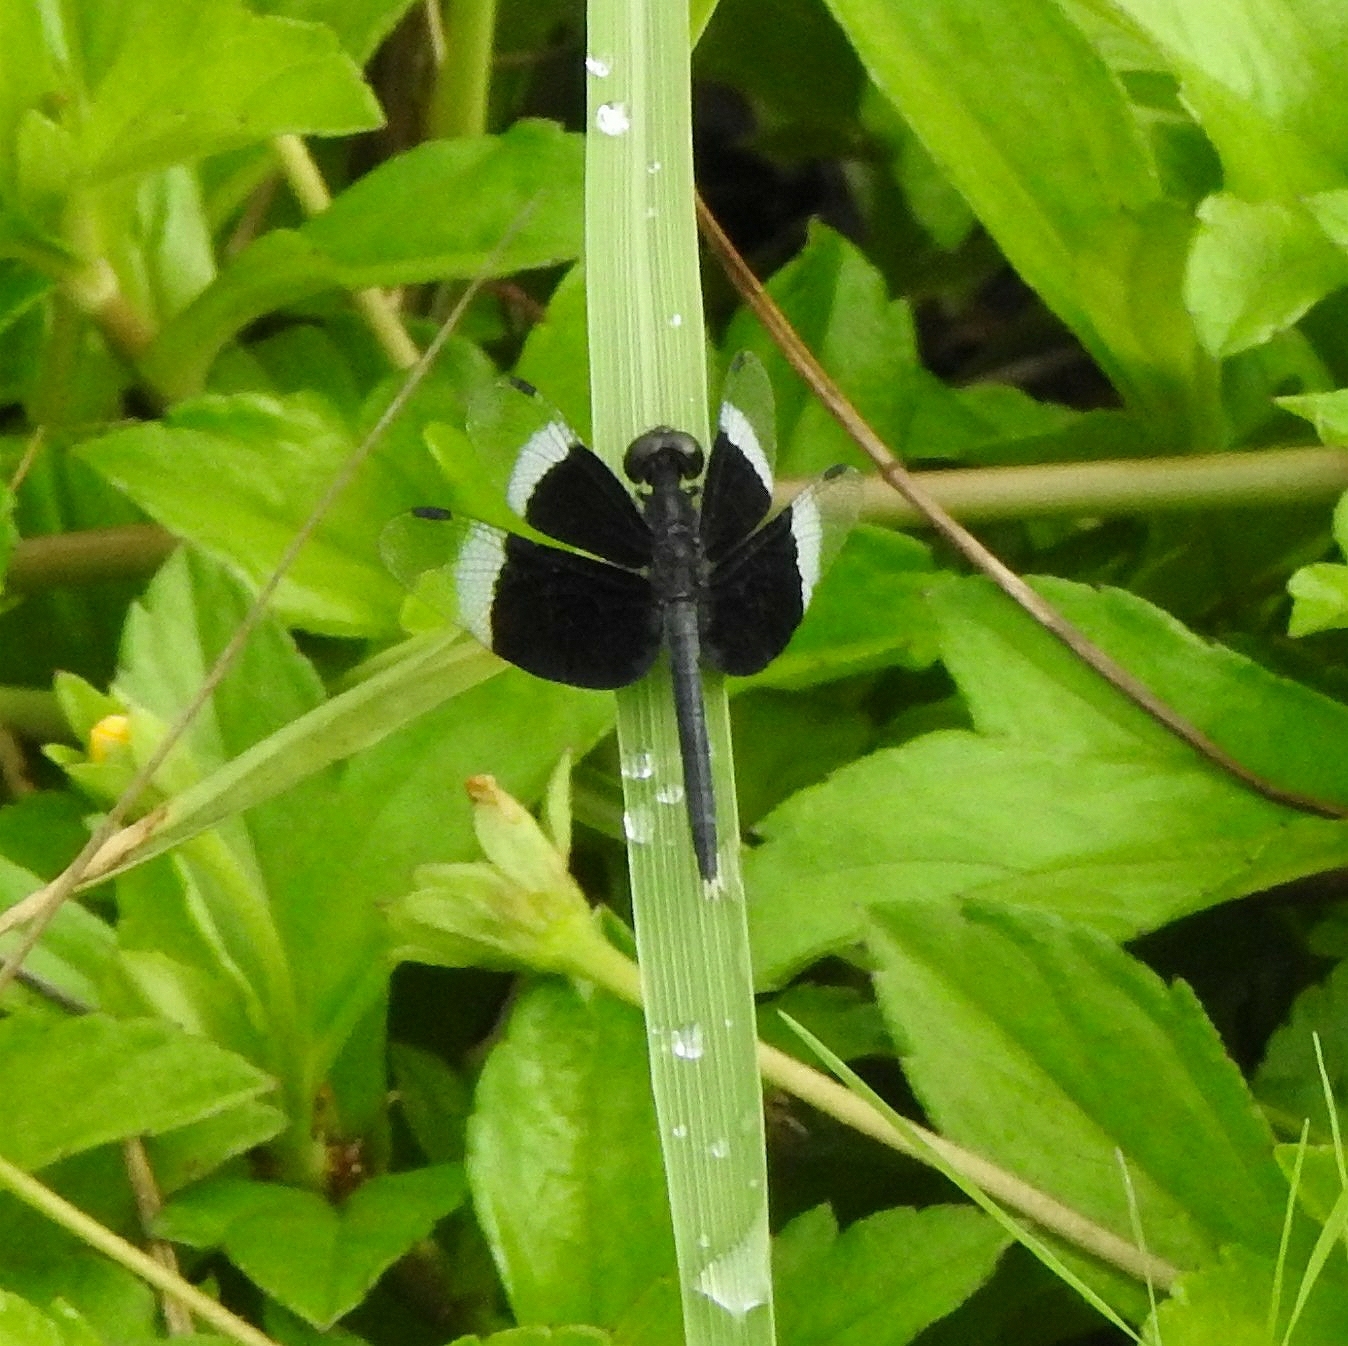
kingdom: Animalia
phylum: Arthropoda
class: Insecta
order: Odonata
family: Libellulidae
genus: Neurothemis
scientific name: Neurothemis tullia
